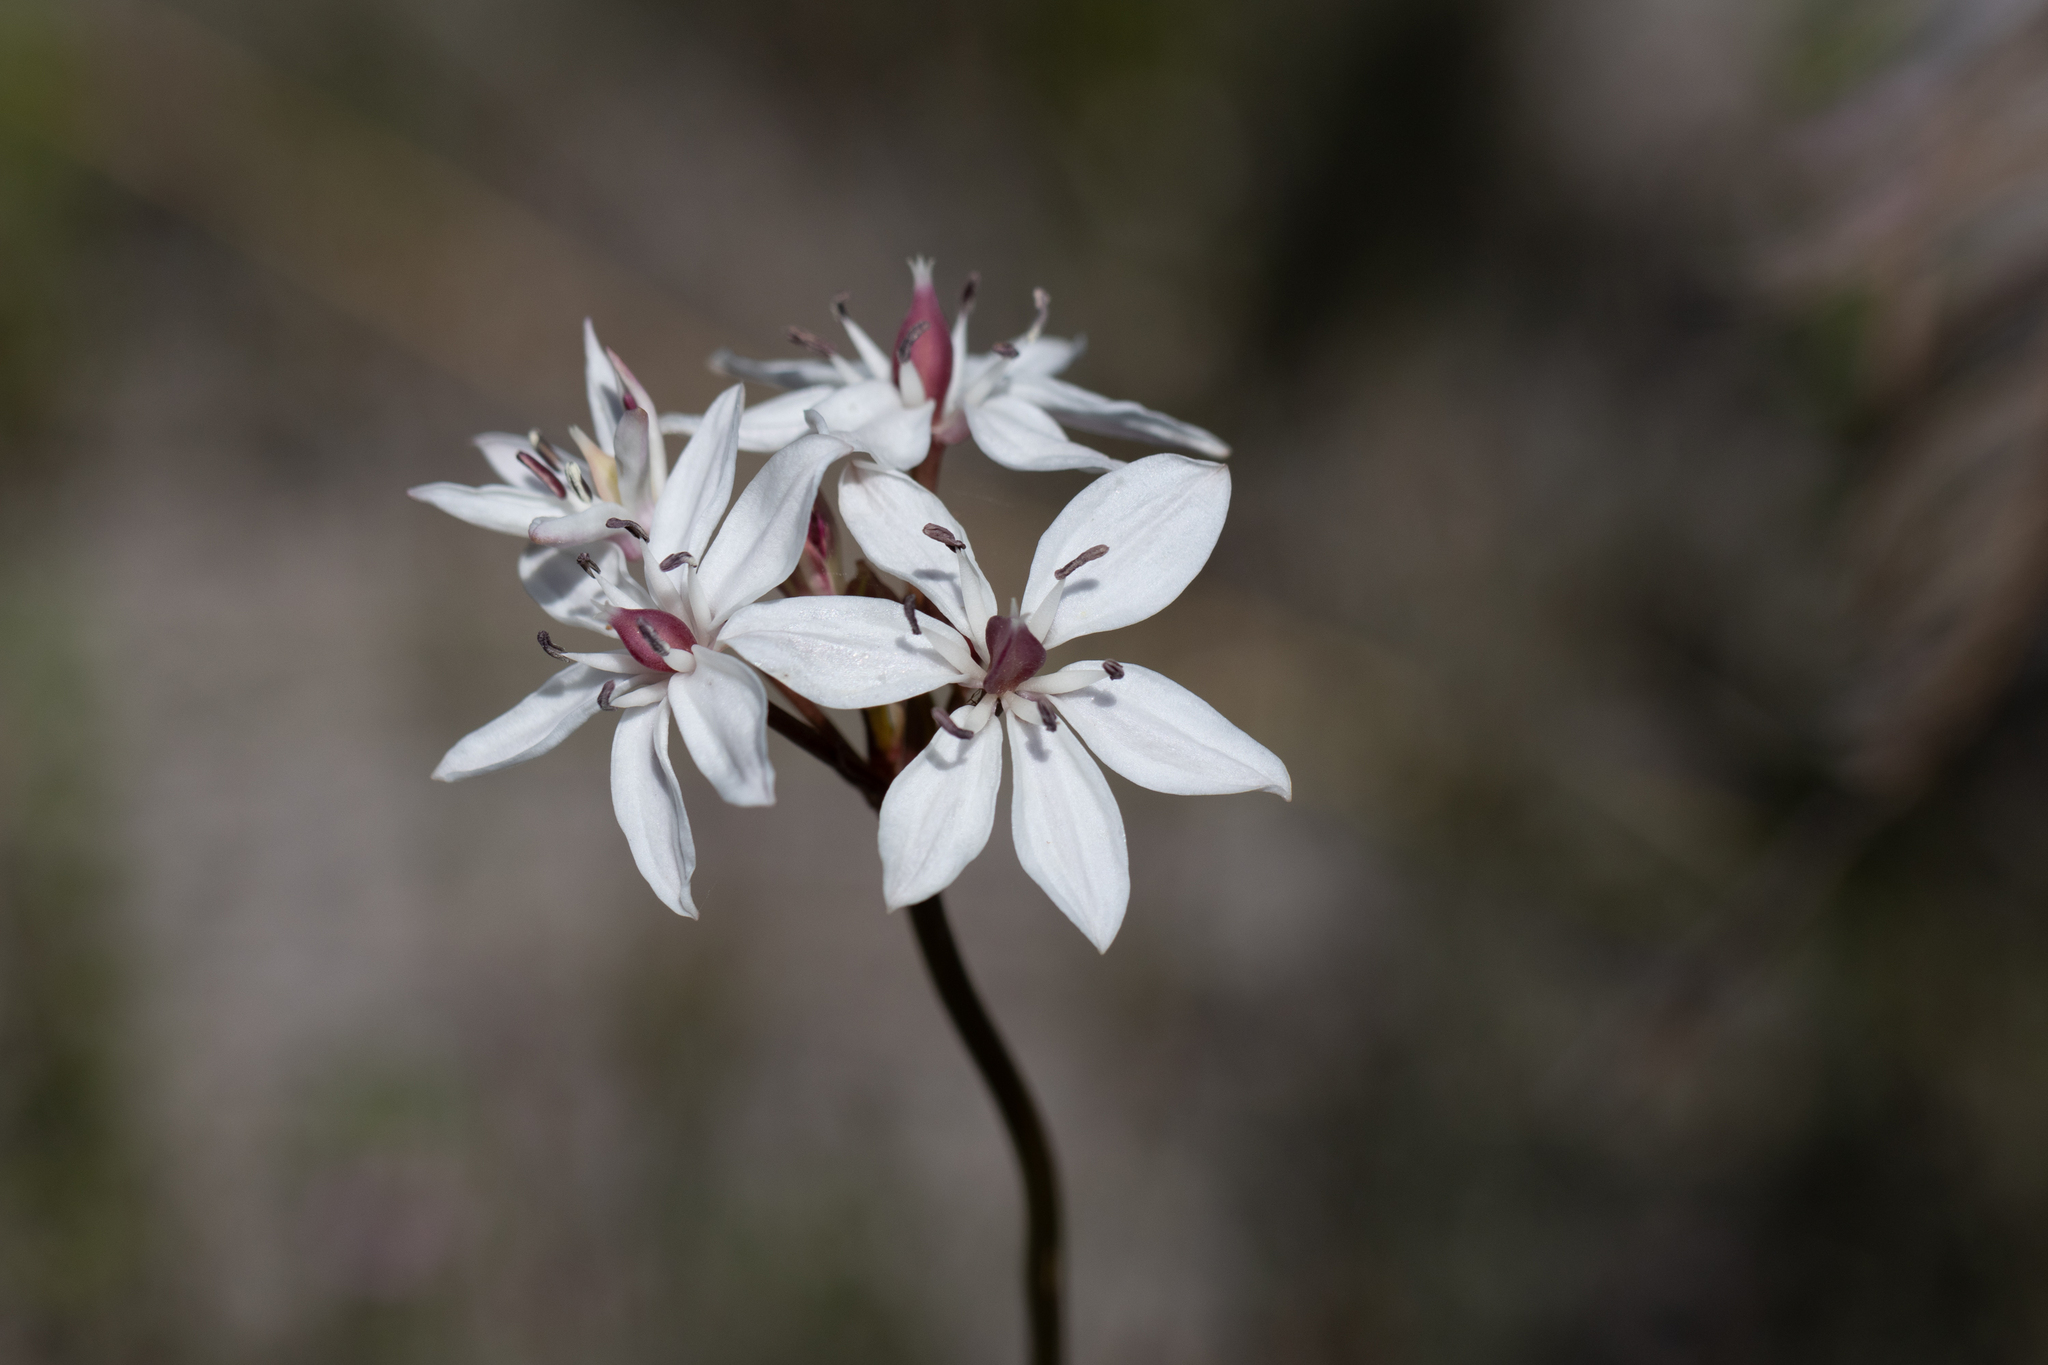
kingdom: Plantae
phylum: Tracheophyta
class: Liliopsida
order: Liliales
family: Colchicaceae
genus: Burchardia
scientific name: Burchardia umbellata
